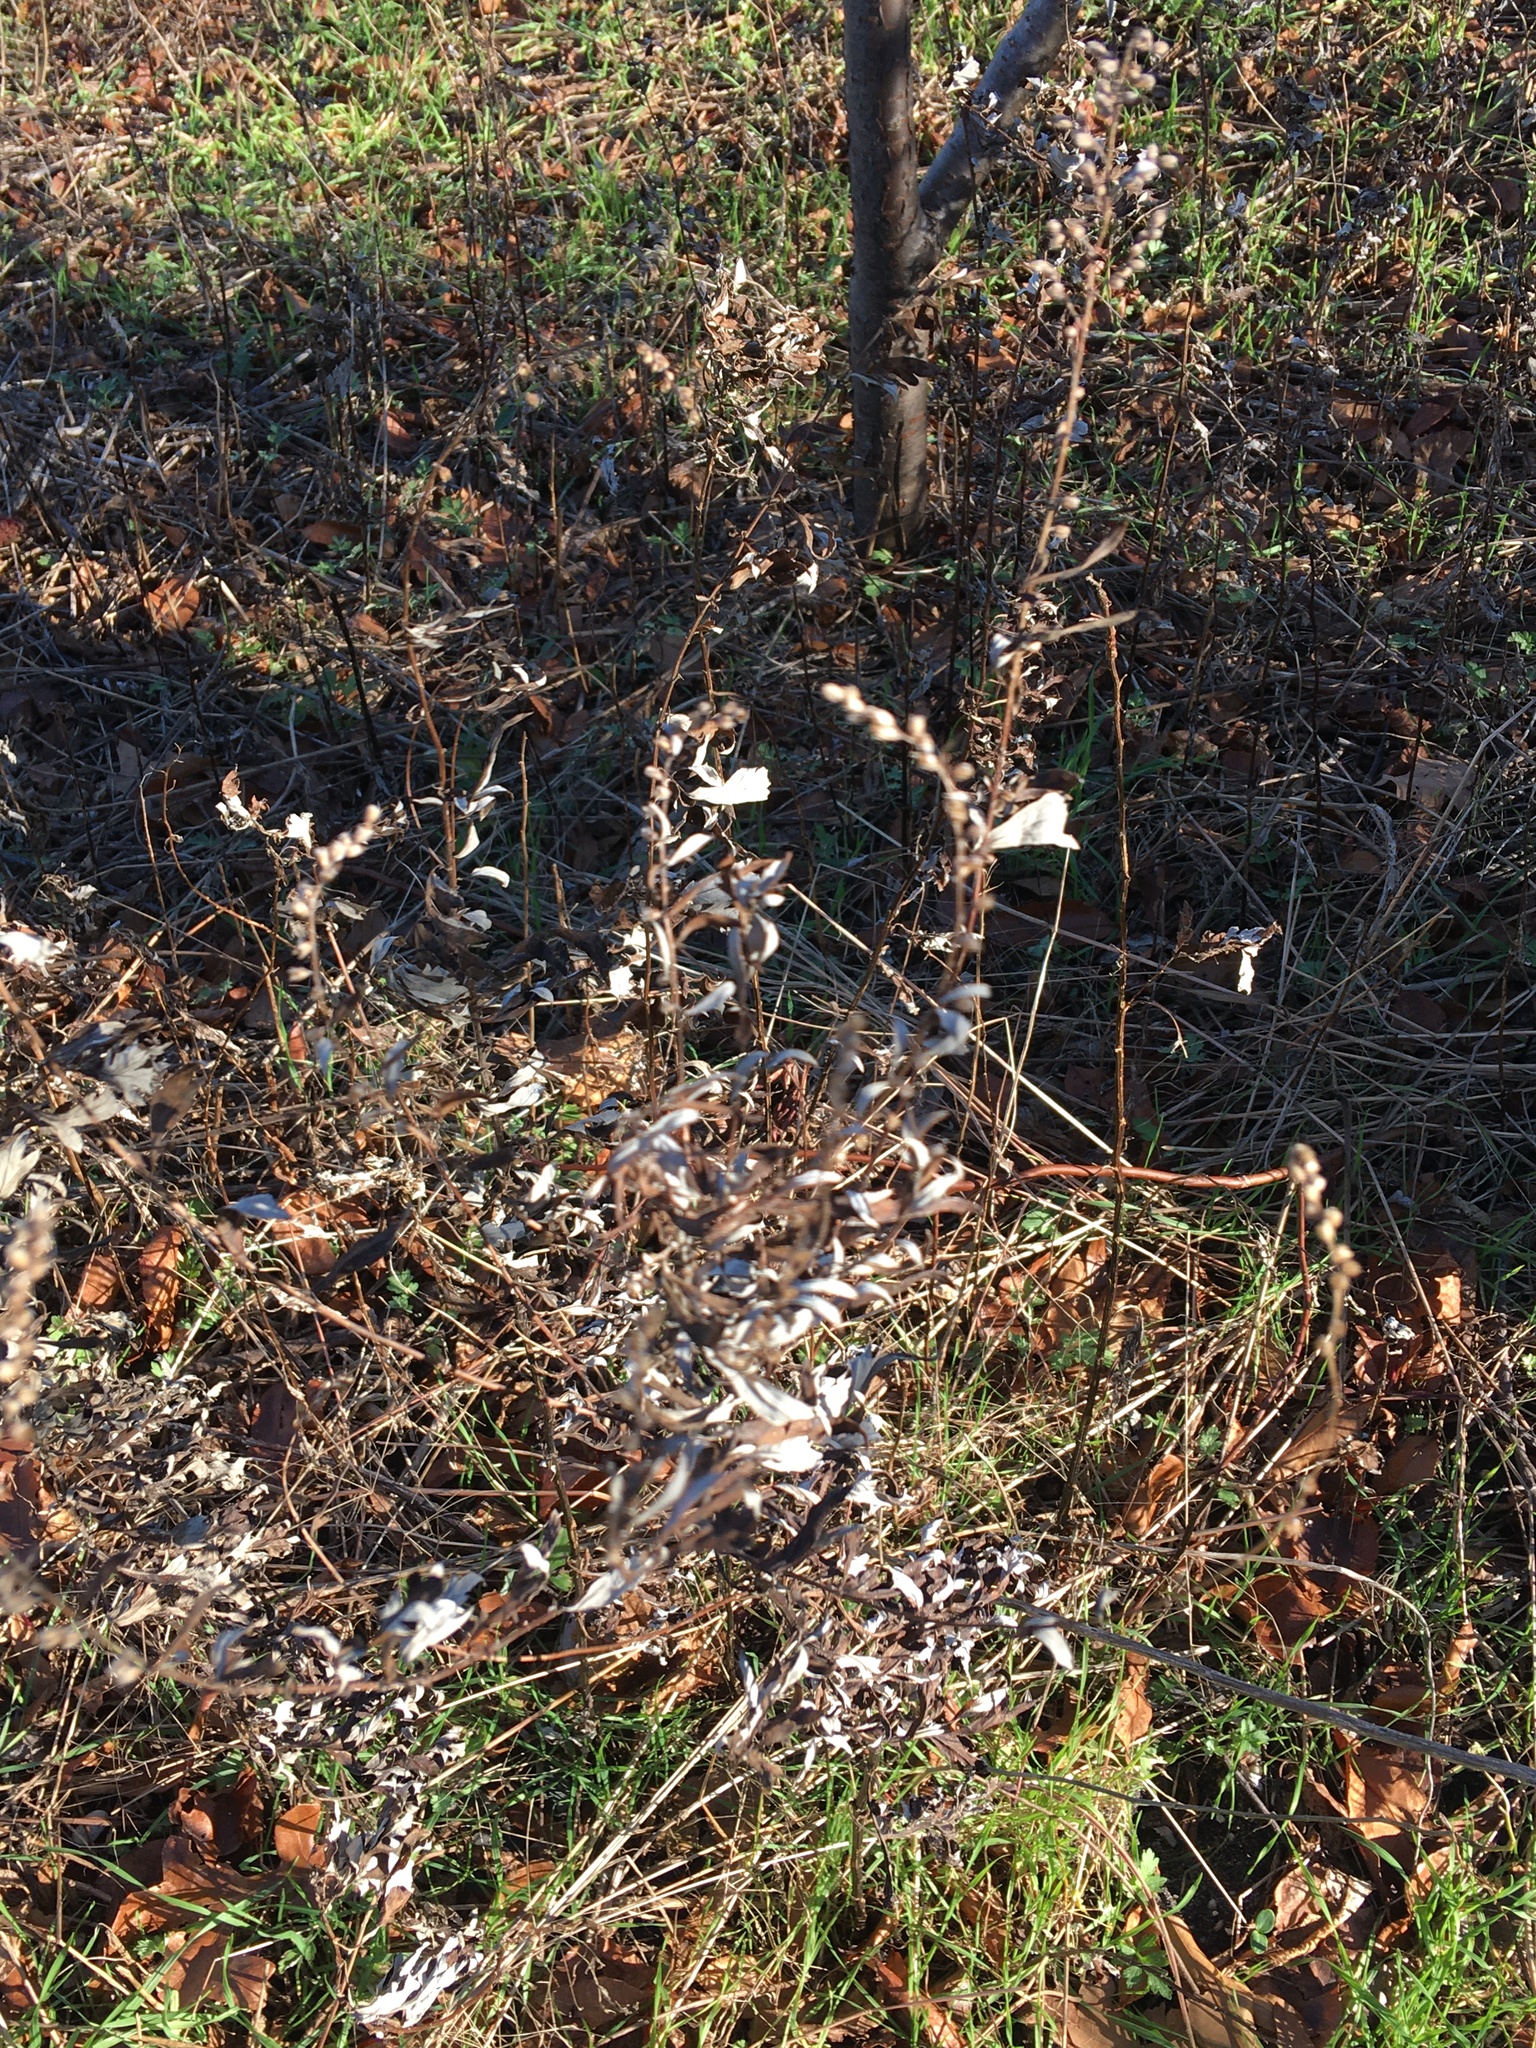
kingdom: Plantae
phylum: Tracheophyta
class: Magnoliopsida
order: Asterales
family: Asteraceae
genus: Artemisia
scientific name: Artemisia vulgaris
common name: Mugwort
